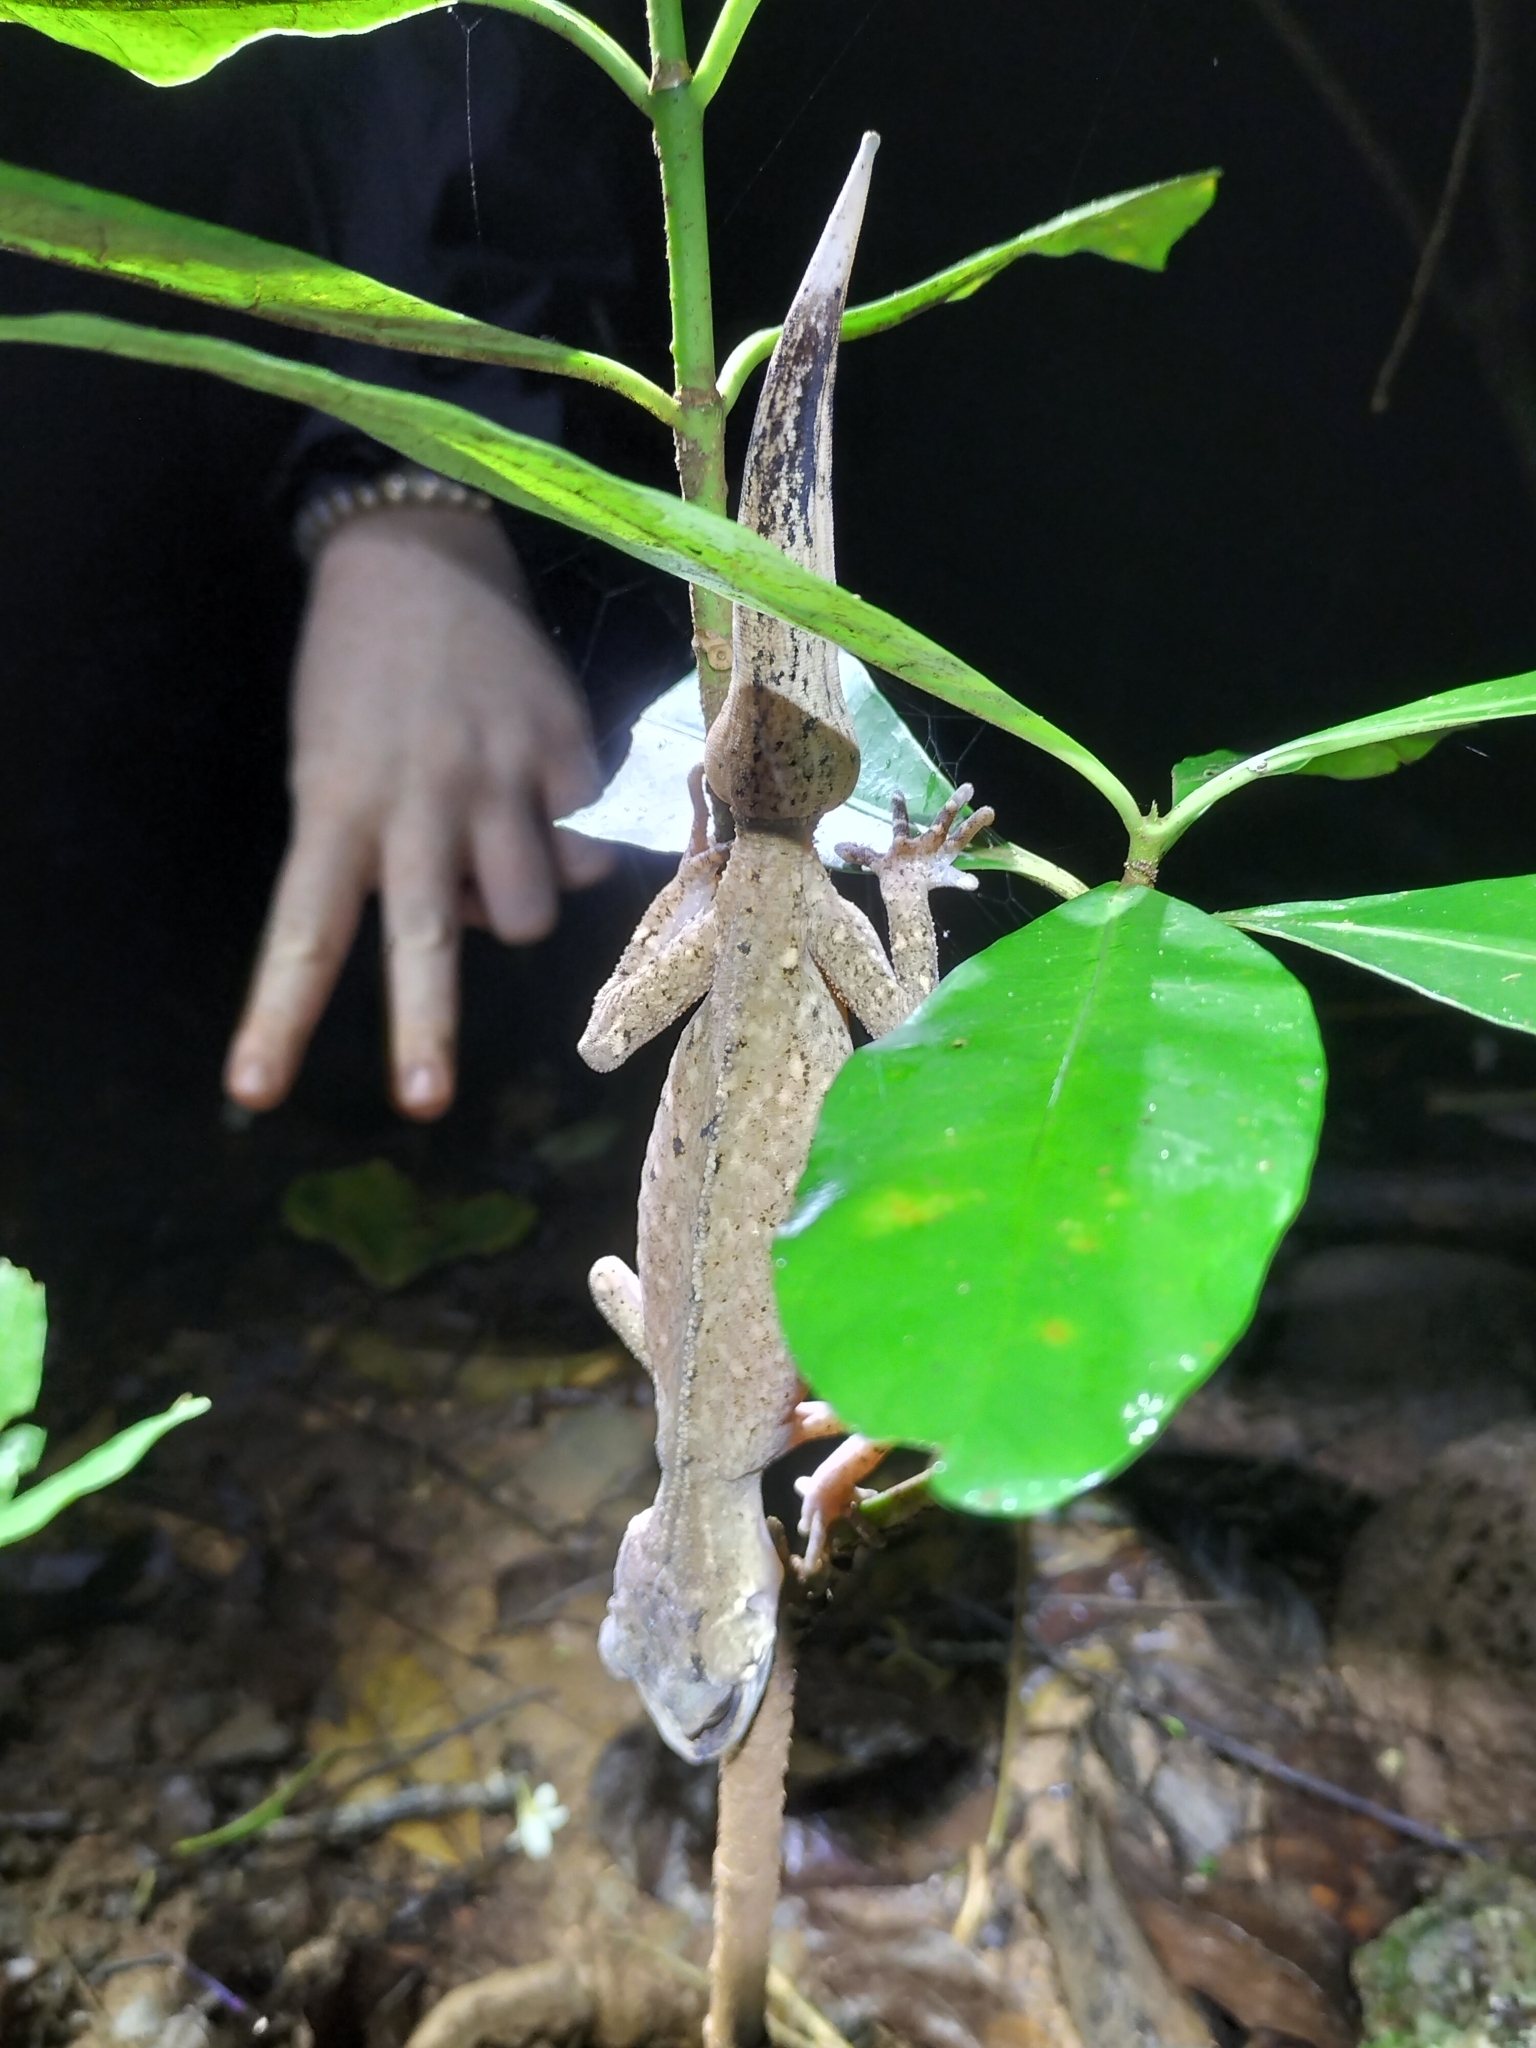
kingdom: Animalia
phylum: Chordata
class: Squamata
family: Carphodactylidae
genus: Carphodactylus
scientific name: Carphodactylus laevis
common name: Chameleon gecko
